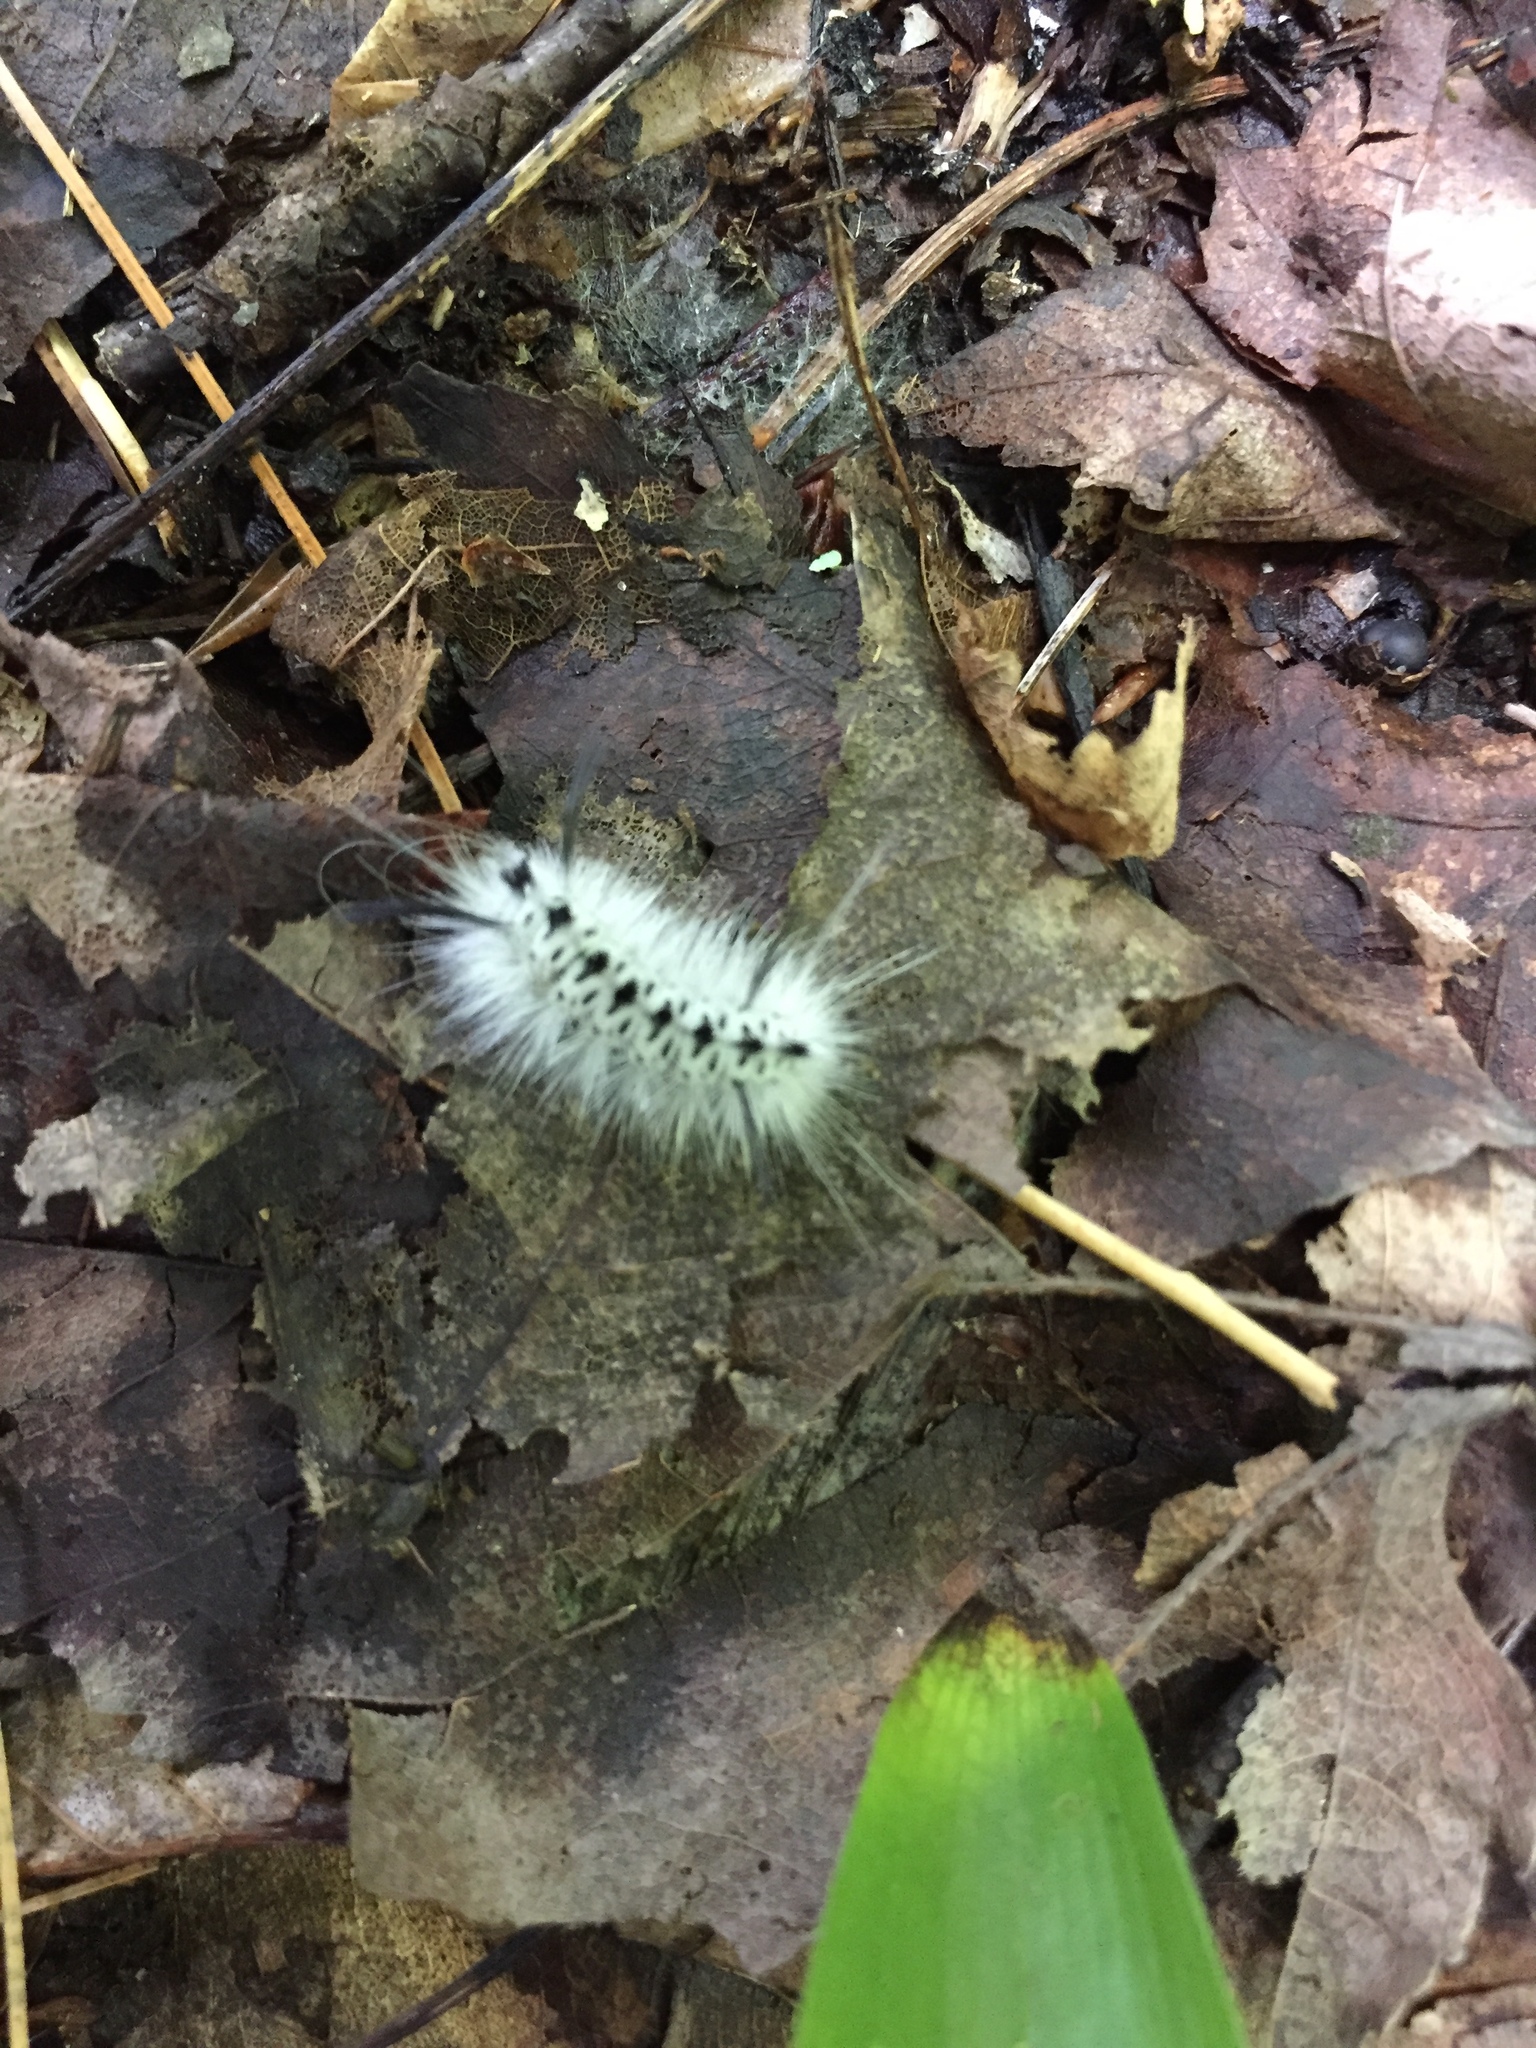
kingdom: Animalia
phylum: Arthropoda
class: Insecta
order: Lepidoptera
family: Erebidae
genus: Lophocampa
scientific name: Lophocampa caryae
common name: Hickory tussock moth
